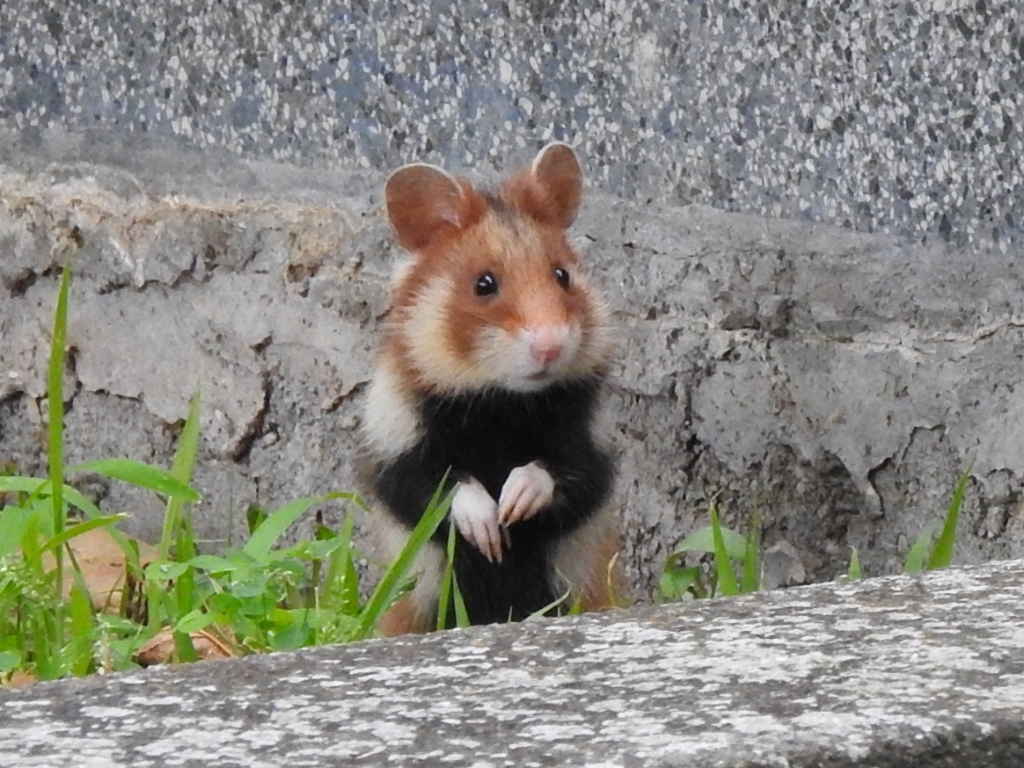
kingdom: Animalia
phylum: Chordata
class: Mammalia
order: Rodentia
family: Cricetidae
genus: Cricetus
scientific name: Cricetus cricetus
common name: Common hamster
